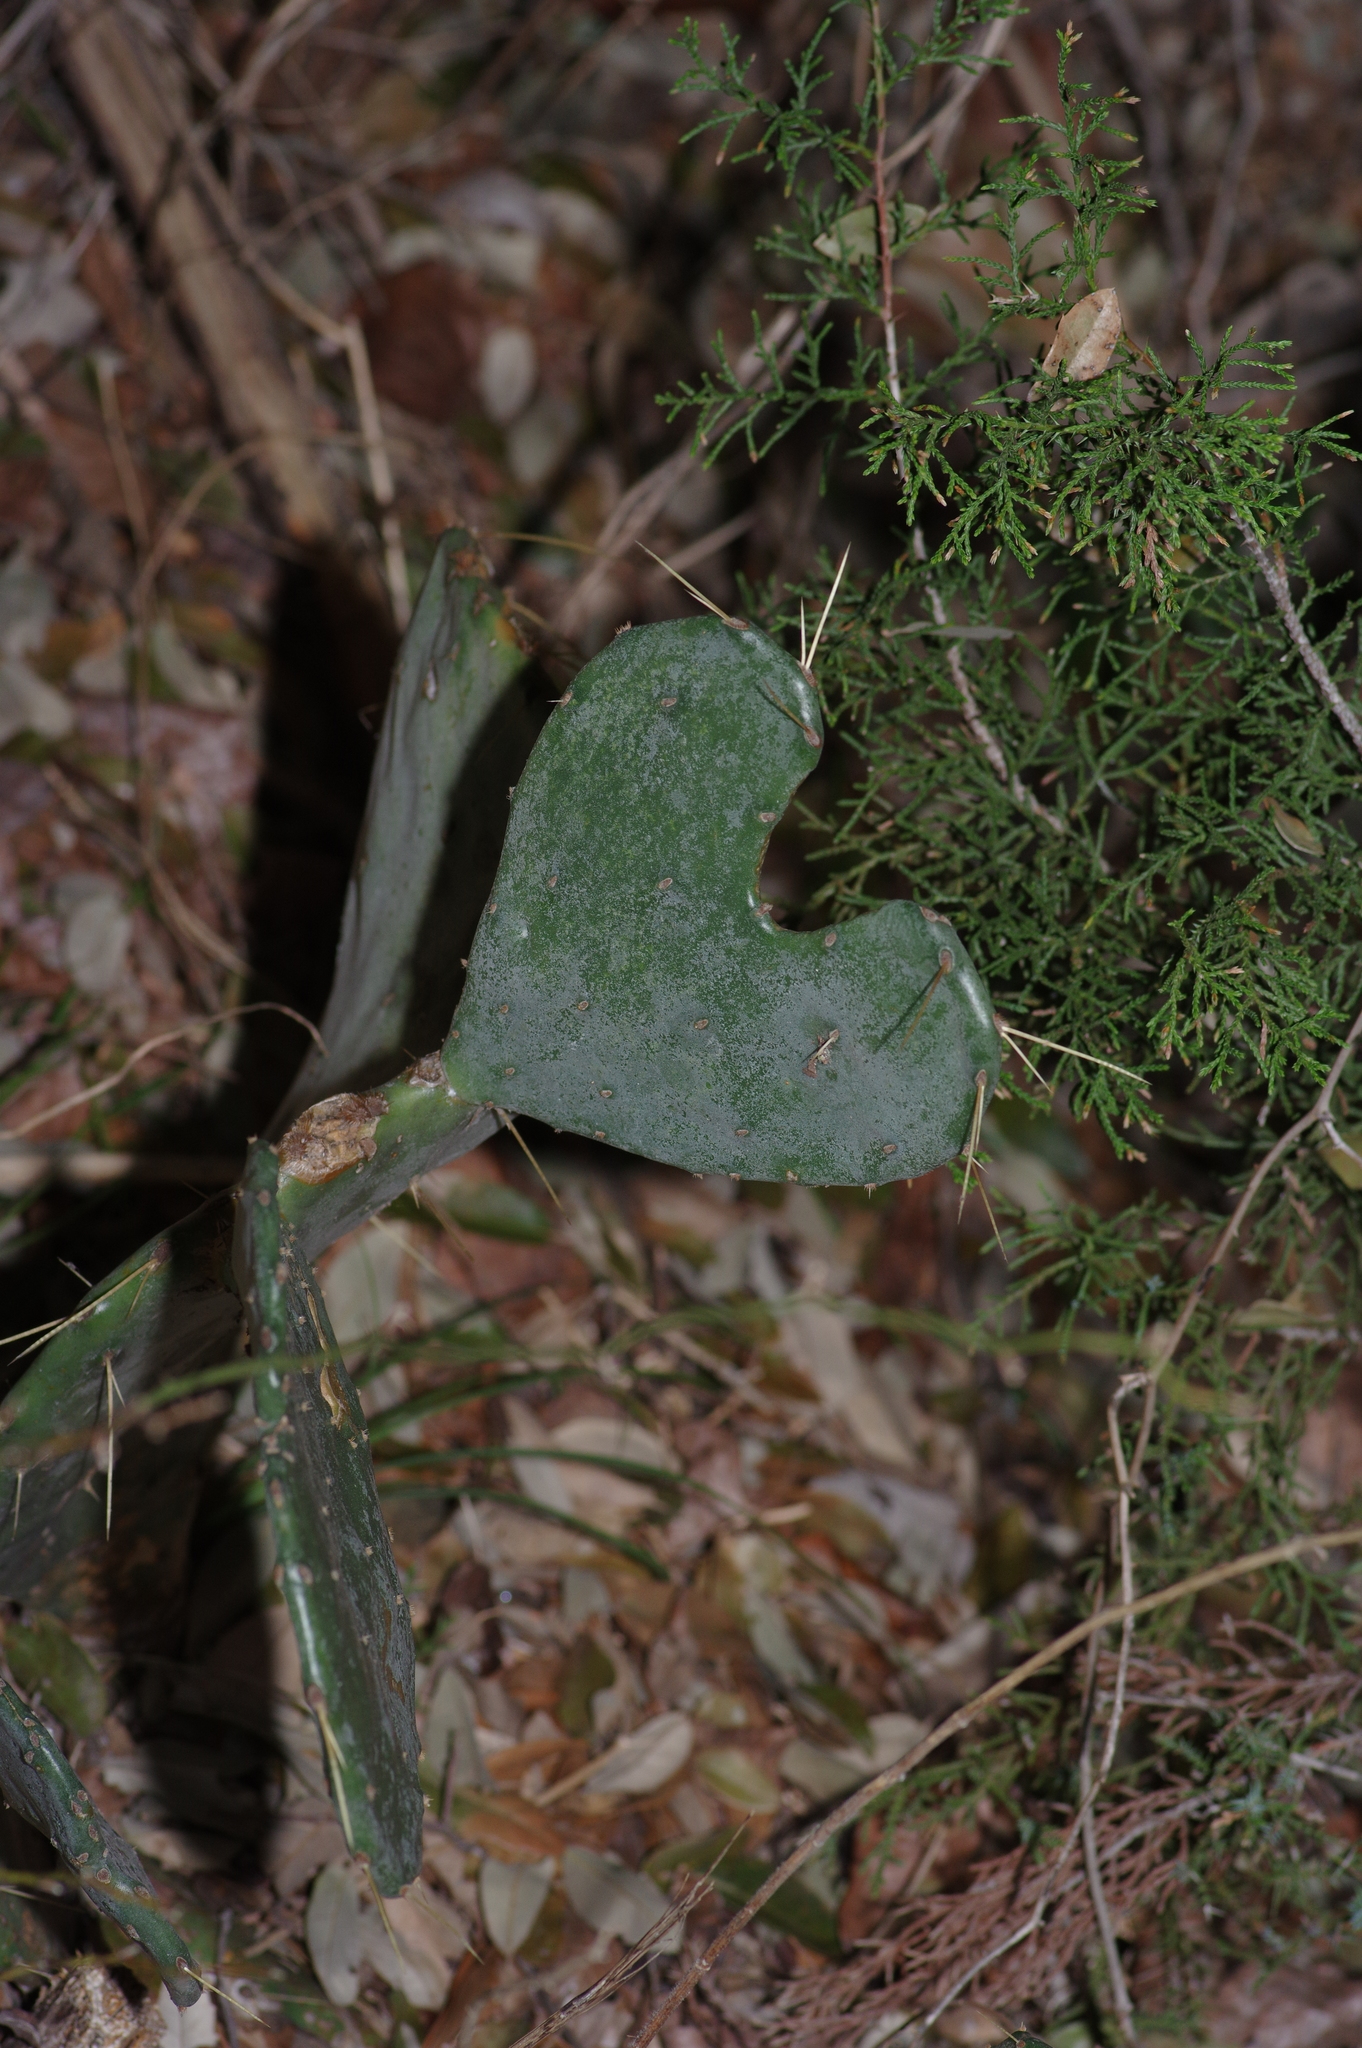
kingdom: Plantae
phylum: Tracheophyta
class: Magnoliopsida
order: Caryophyllales
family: Cactaceae
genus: Opuntia
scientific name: Opuntia orbiculata
